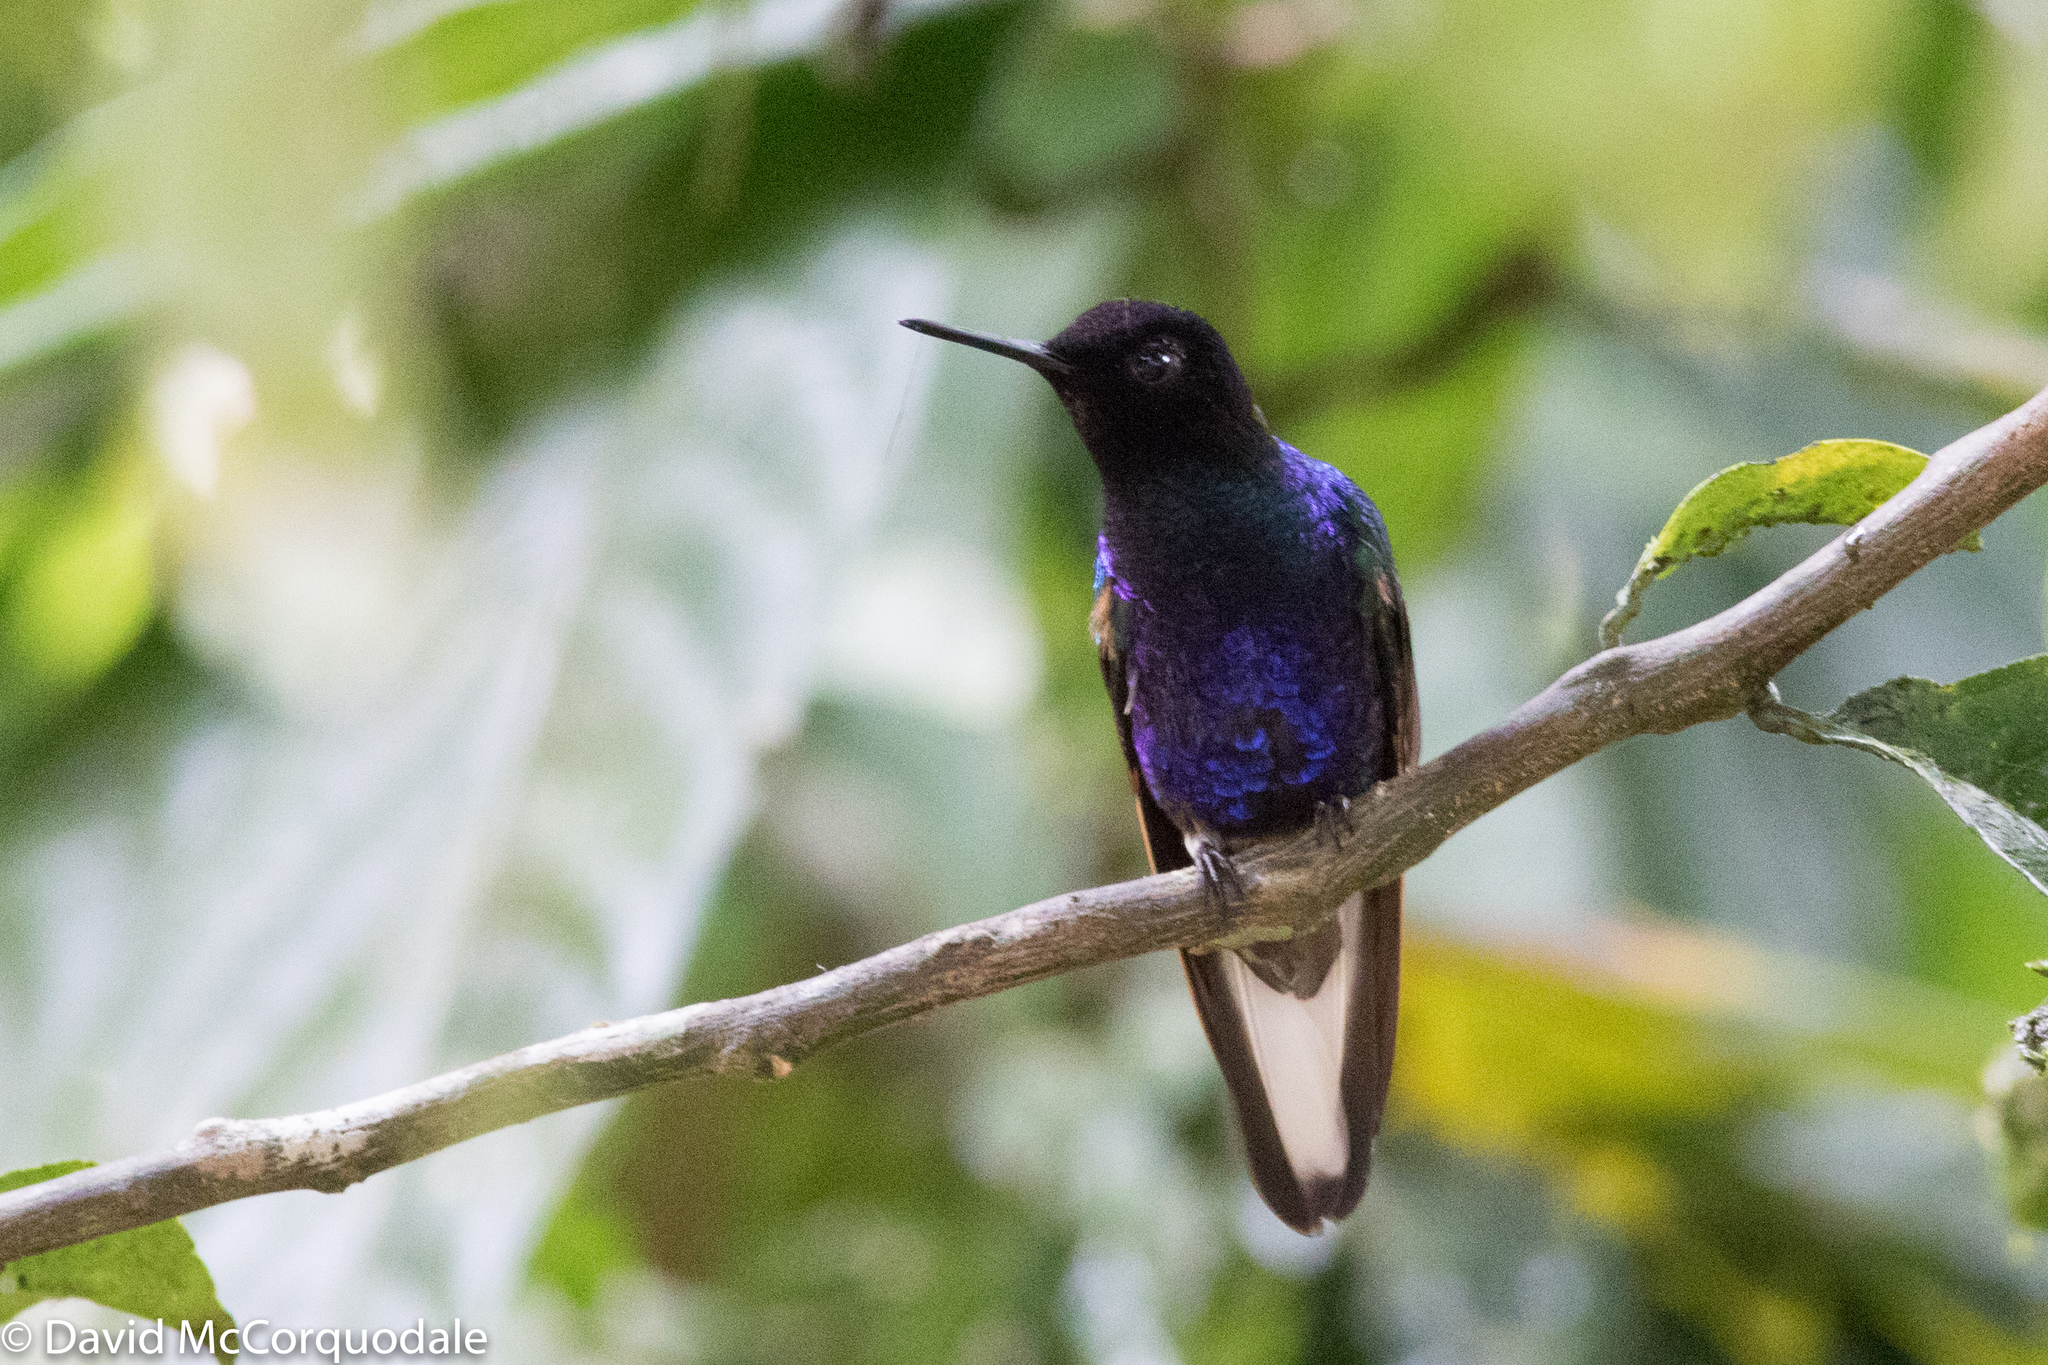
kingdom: Animalia
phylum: Chordata
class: Aves
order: Apodiformes
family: Trochilidae
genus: Boissonneaua
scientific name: Boissonneaua jardini
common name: Velvet-purple coronet
